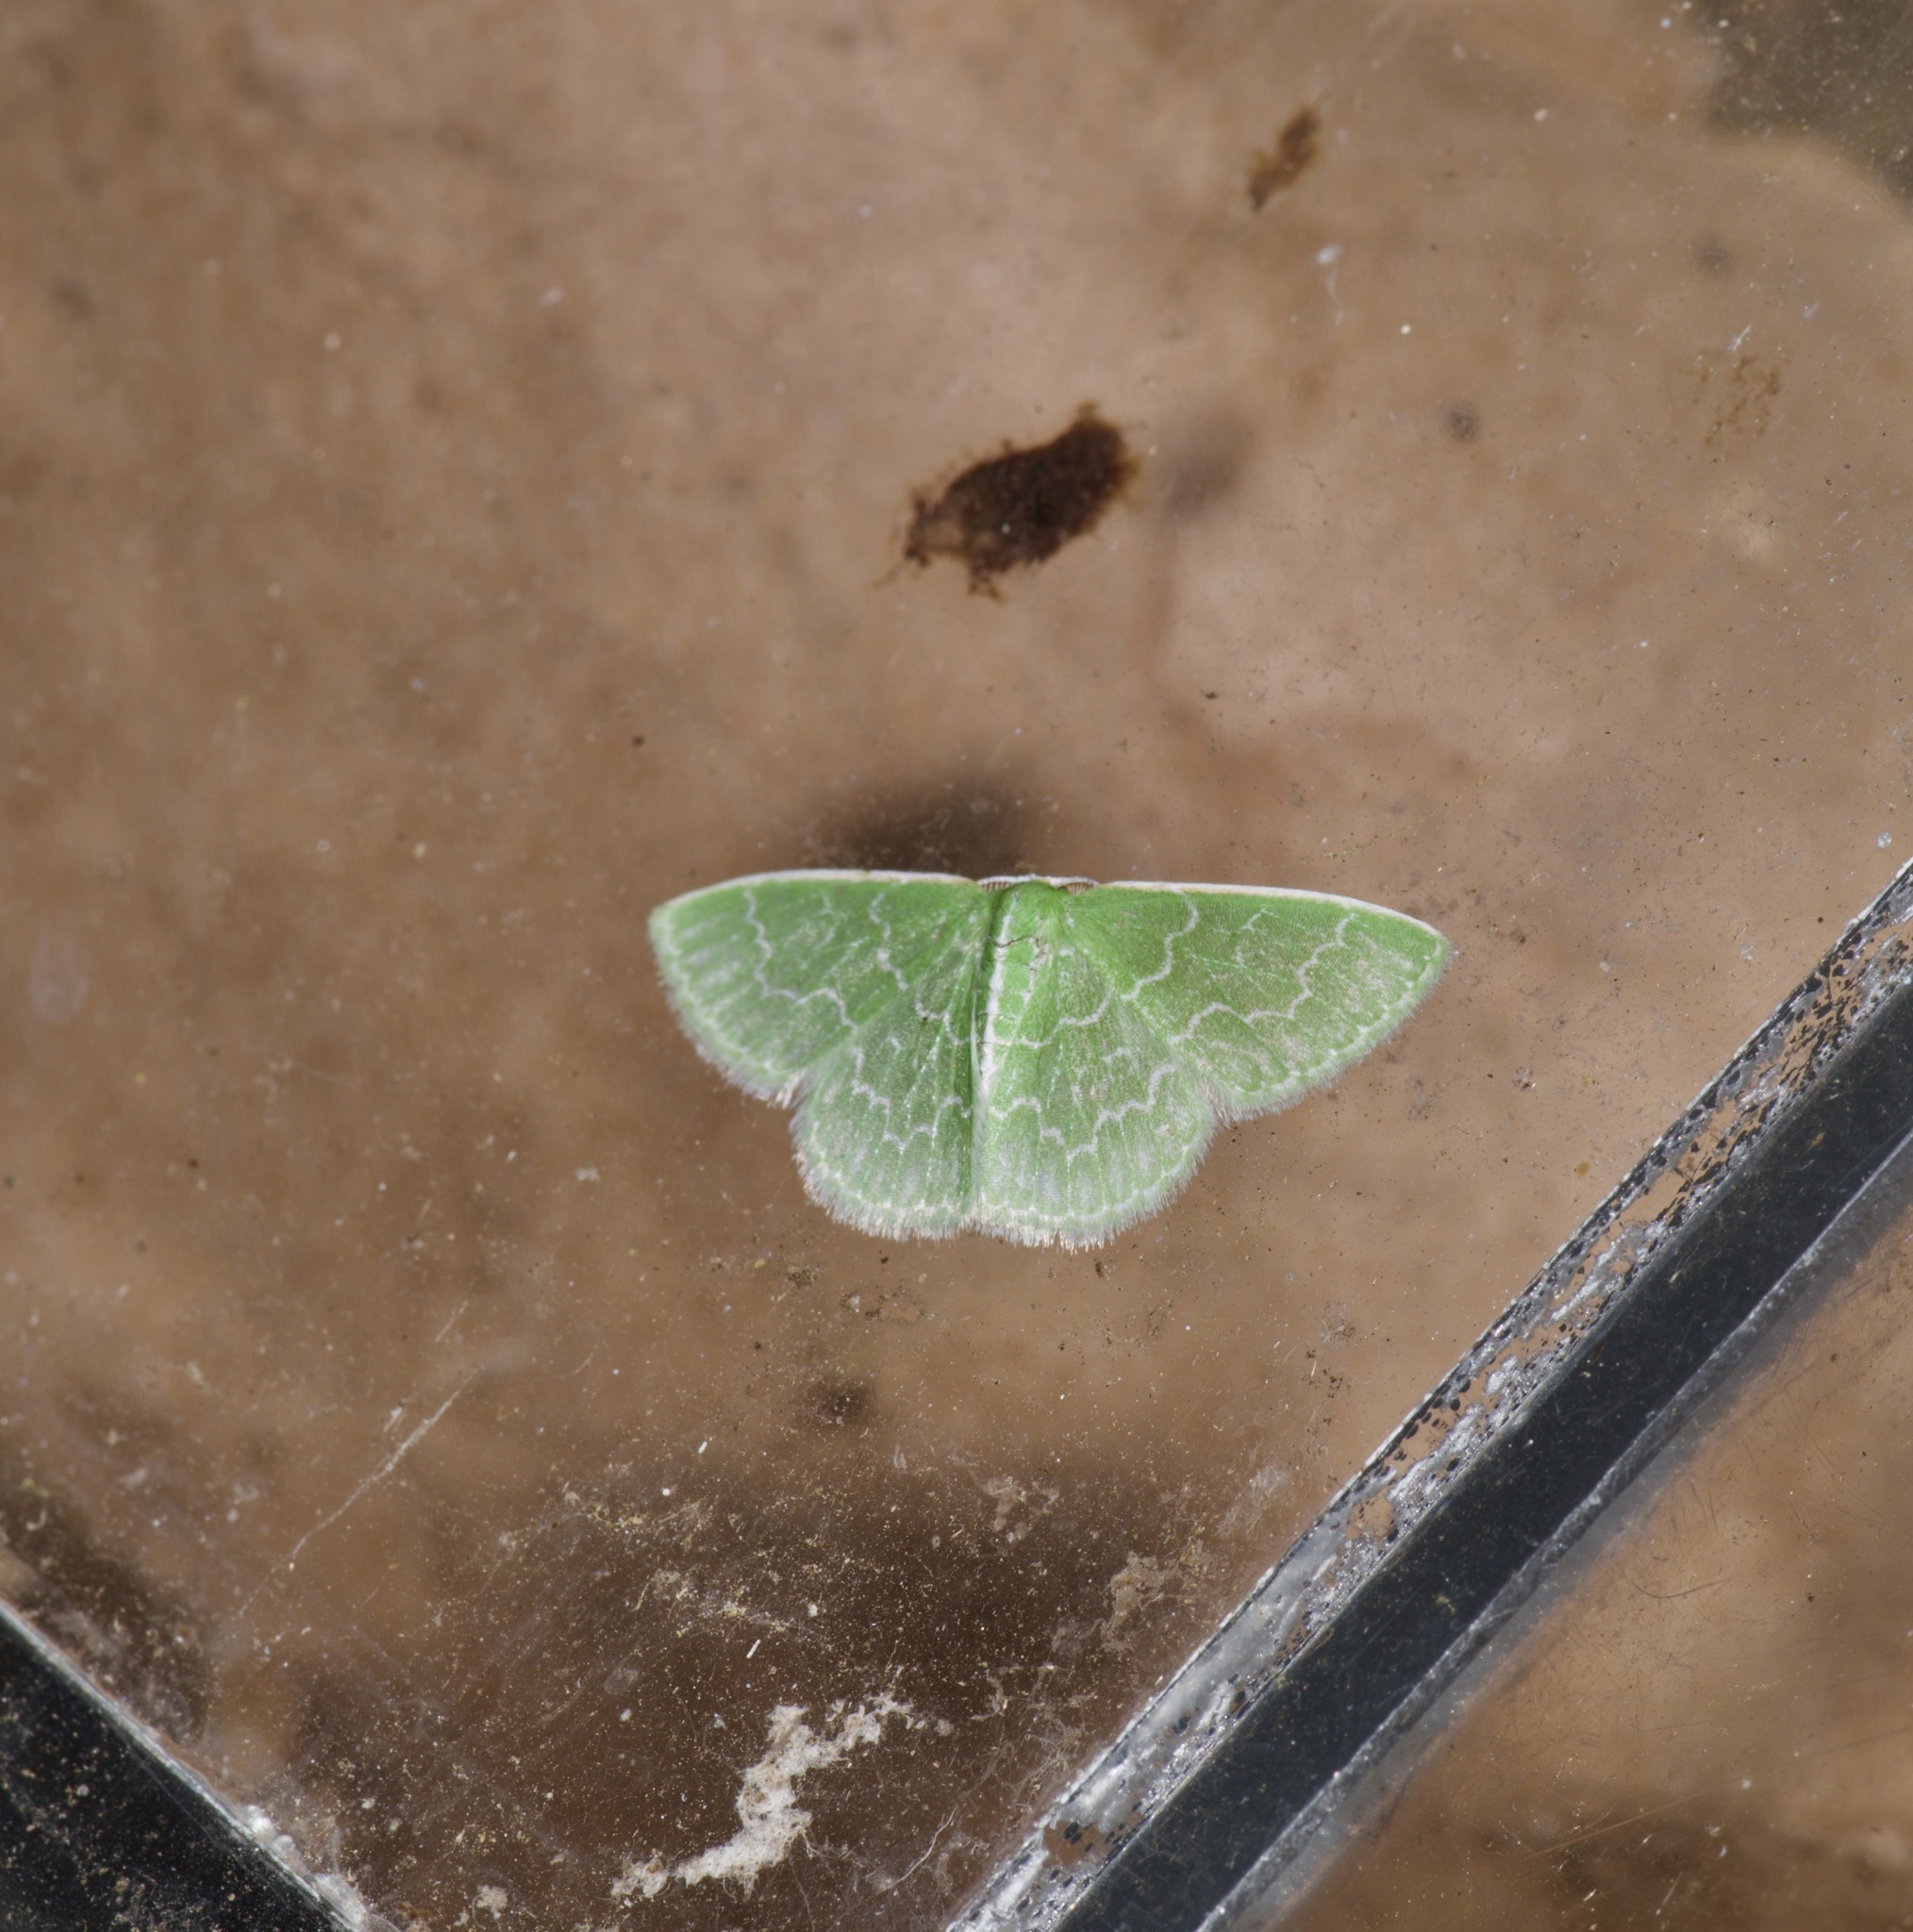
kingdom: Animalia
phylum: Arthropoda
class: Insecta
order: Lepidoptera
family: Geometridae
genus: Synchlora
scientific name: Synchlora frondaria
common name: Southern emerald
